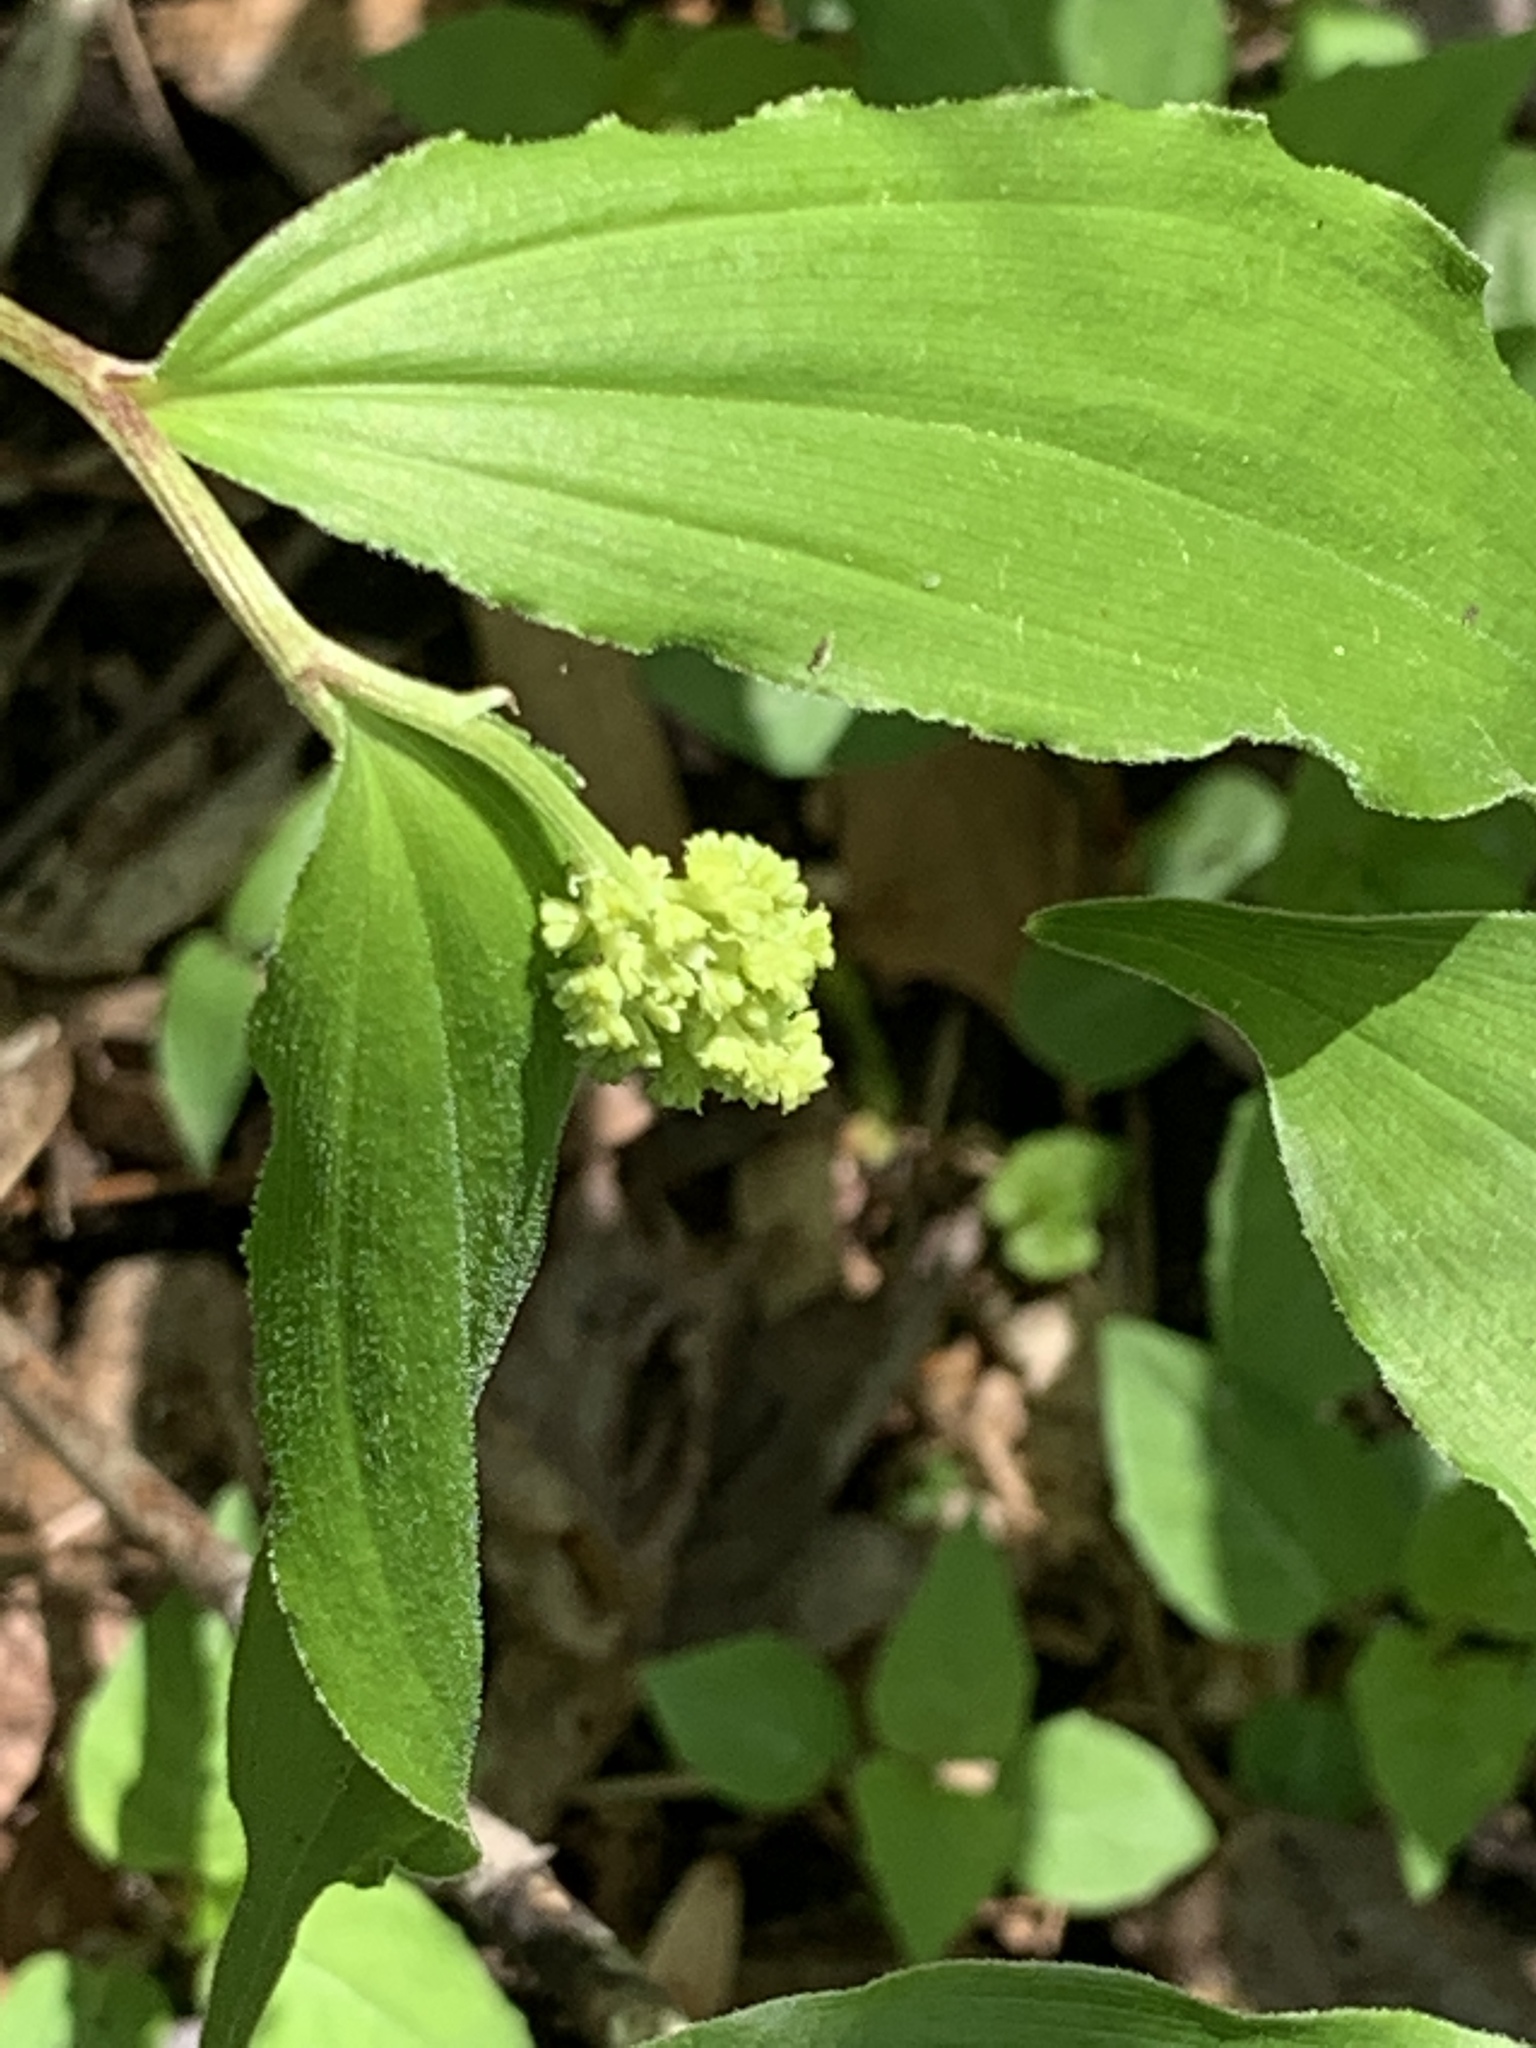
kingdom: Plantae
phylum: Tracheophyta
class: Liliopsida
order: Asparagales
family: Asparagaceae
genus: Maianthemum
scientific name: Maianthemum racemosum
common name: False spikenard
